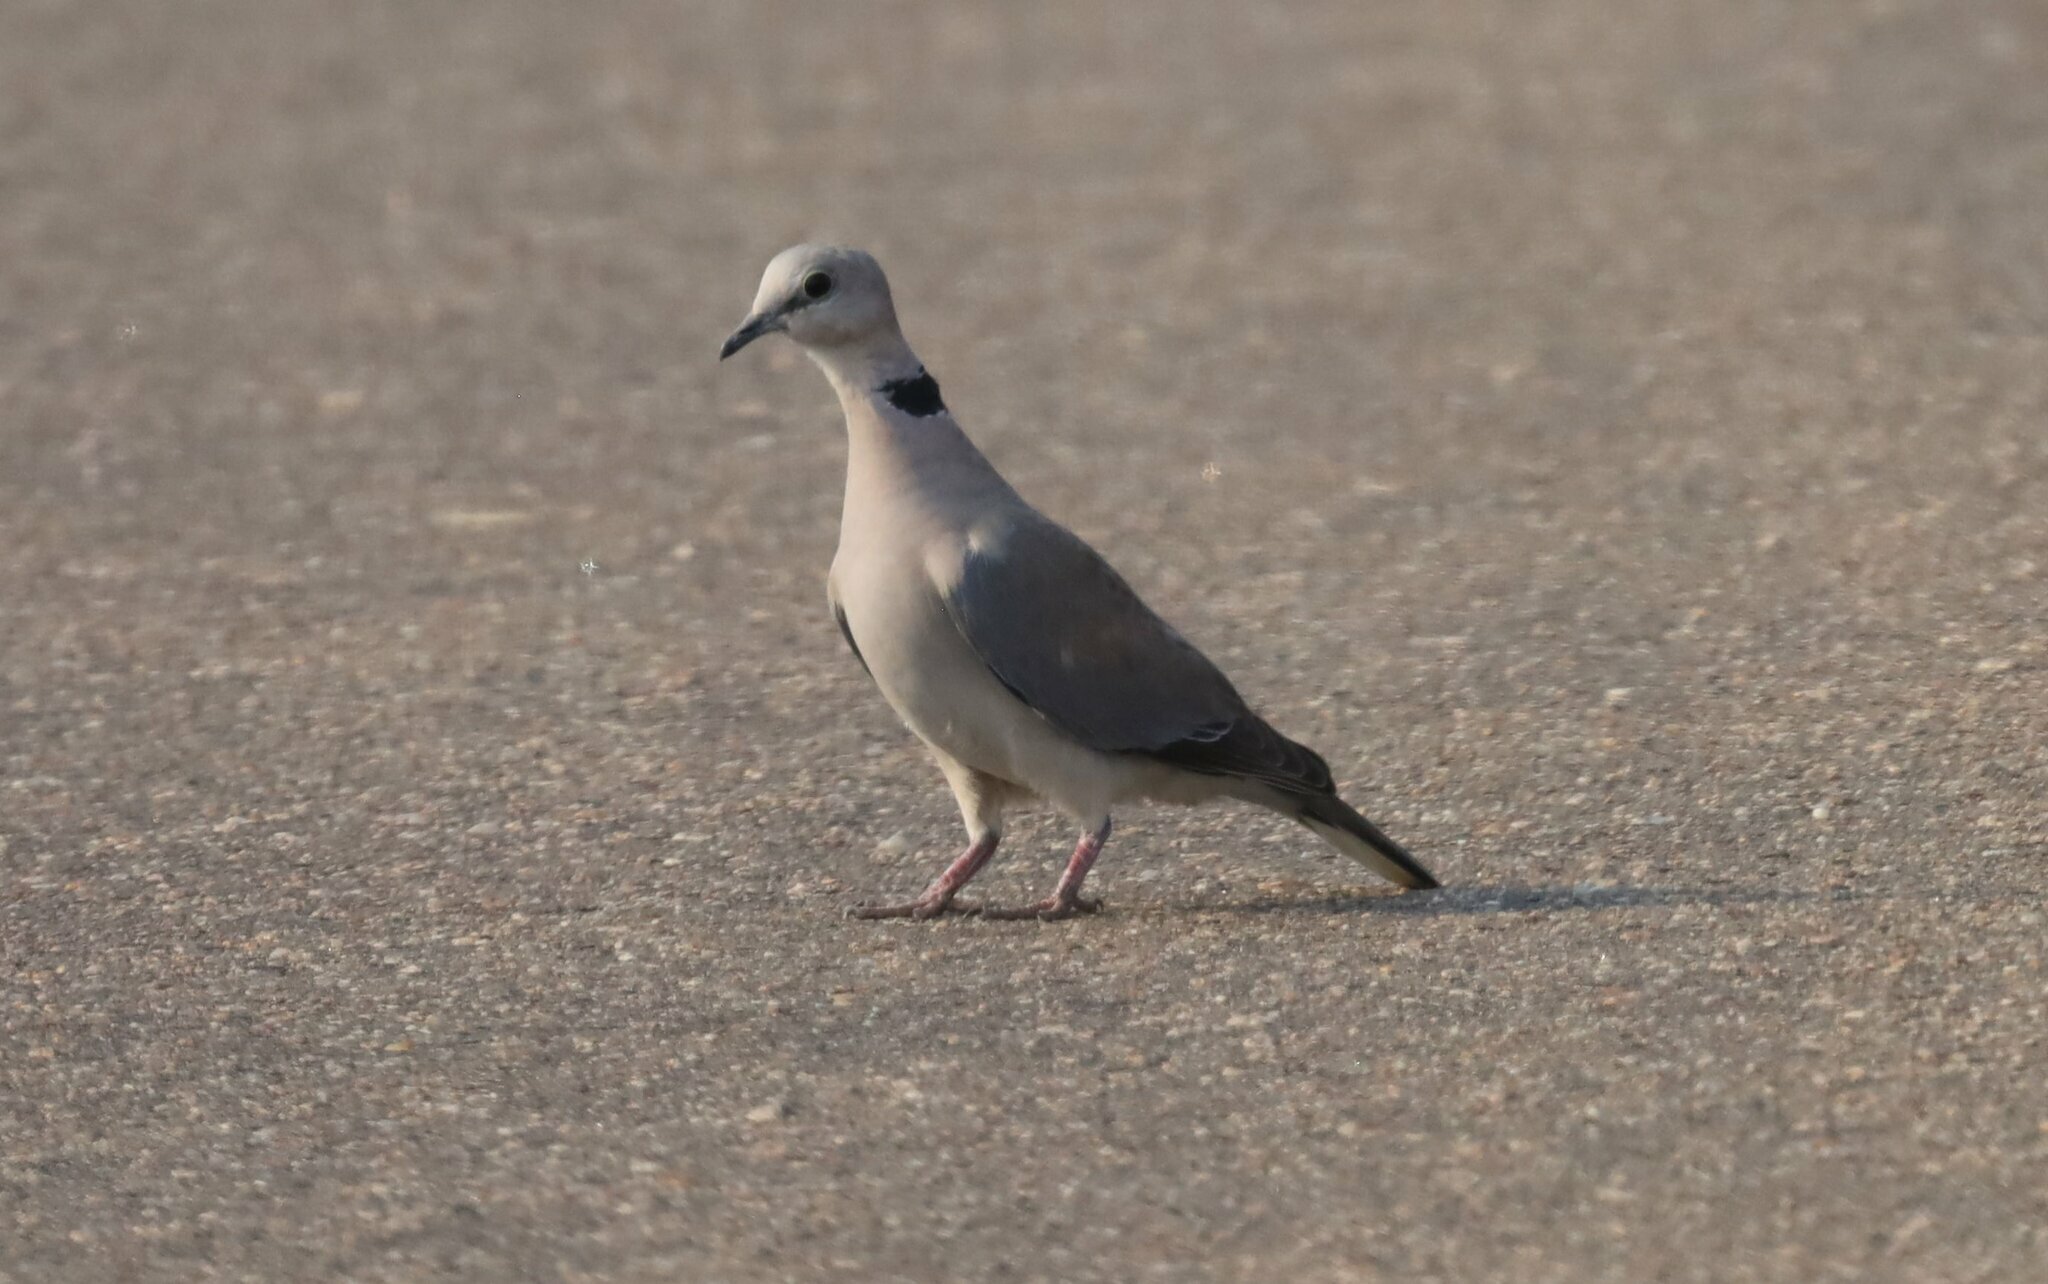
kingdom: Animalia
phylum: Chordata
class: Aves
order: Columbiformes
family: Columbidae
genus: Streptopelia
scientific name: Streptopelia capicola
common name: Ring-necked dove
